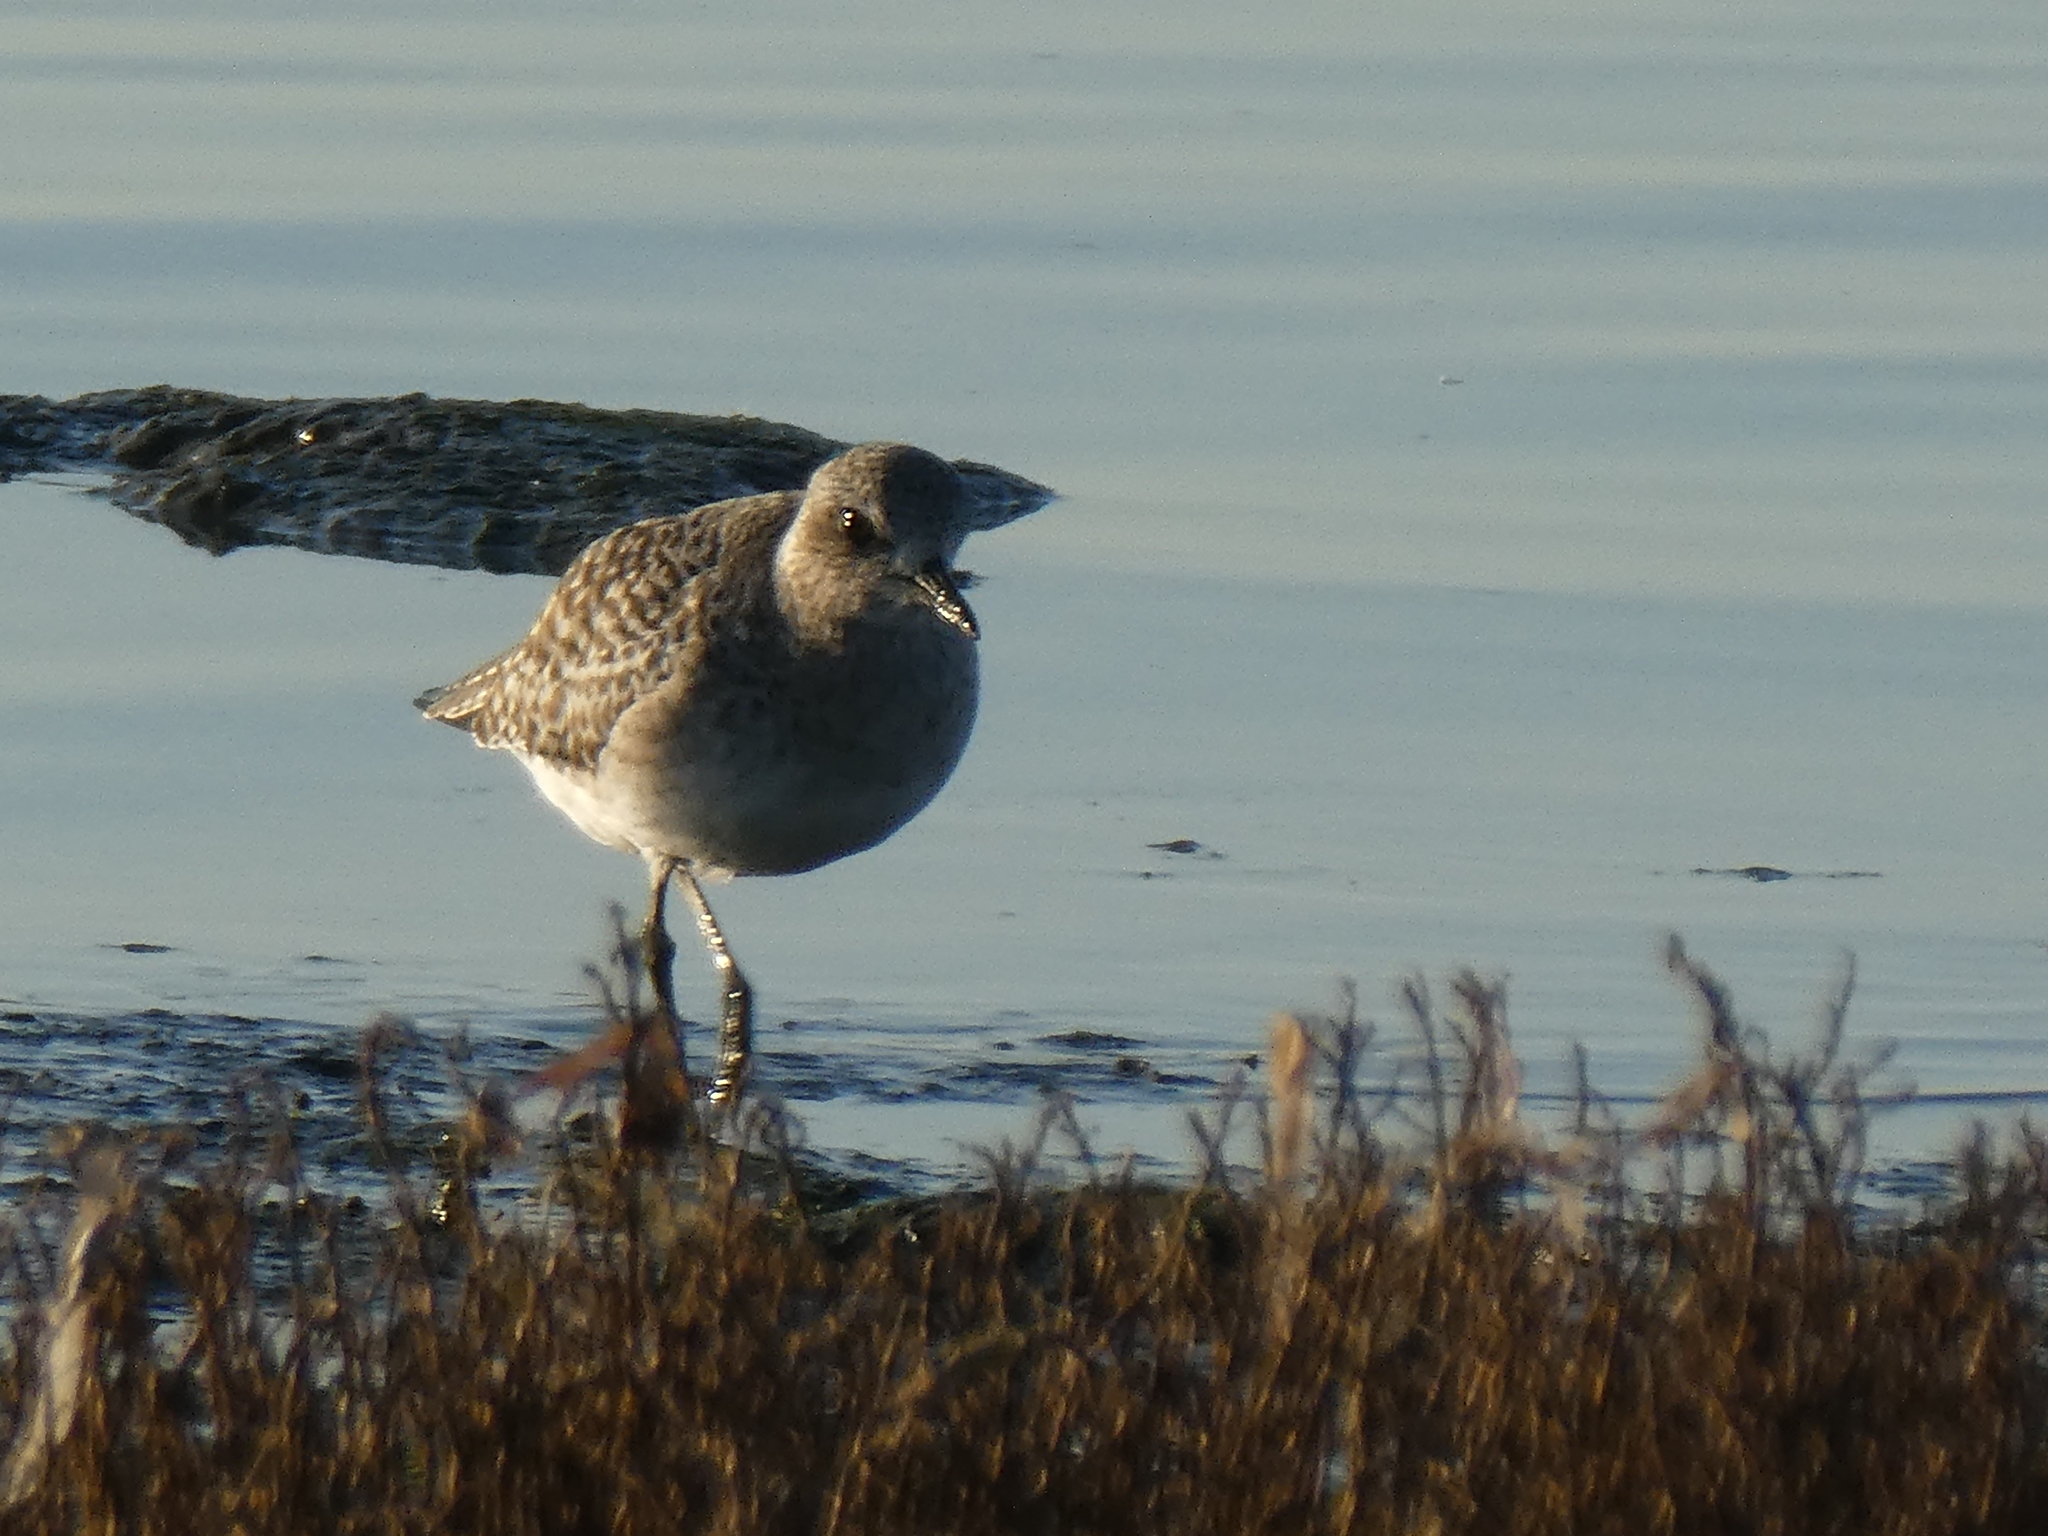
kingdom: Animalia
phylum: Chordata
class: Aves
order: Charadriiformes
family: Charadriidae
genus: Pluvialis
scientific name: Pluvialis squatarola
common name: Grey plover
